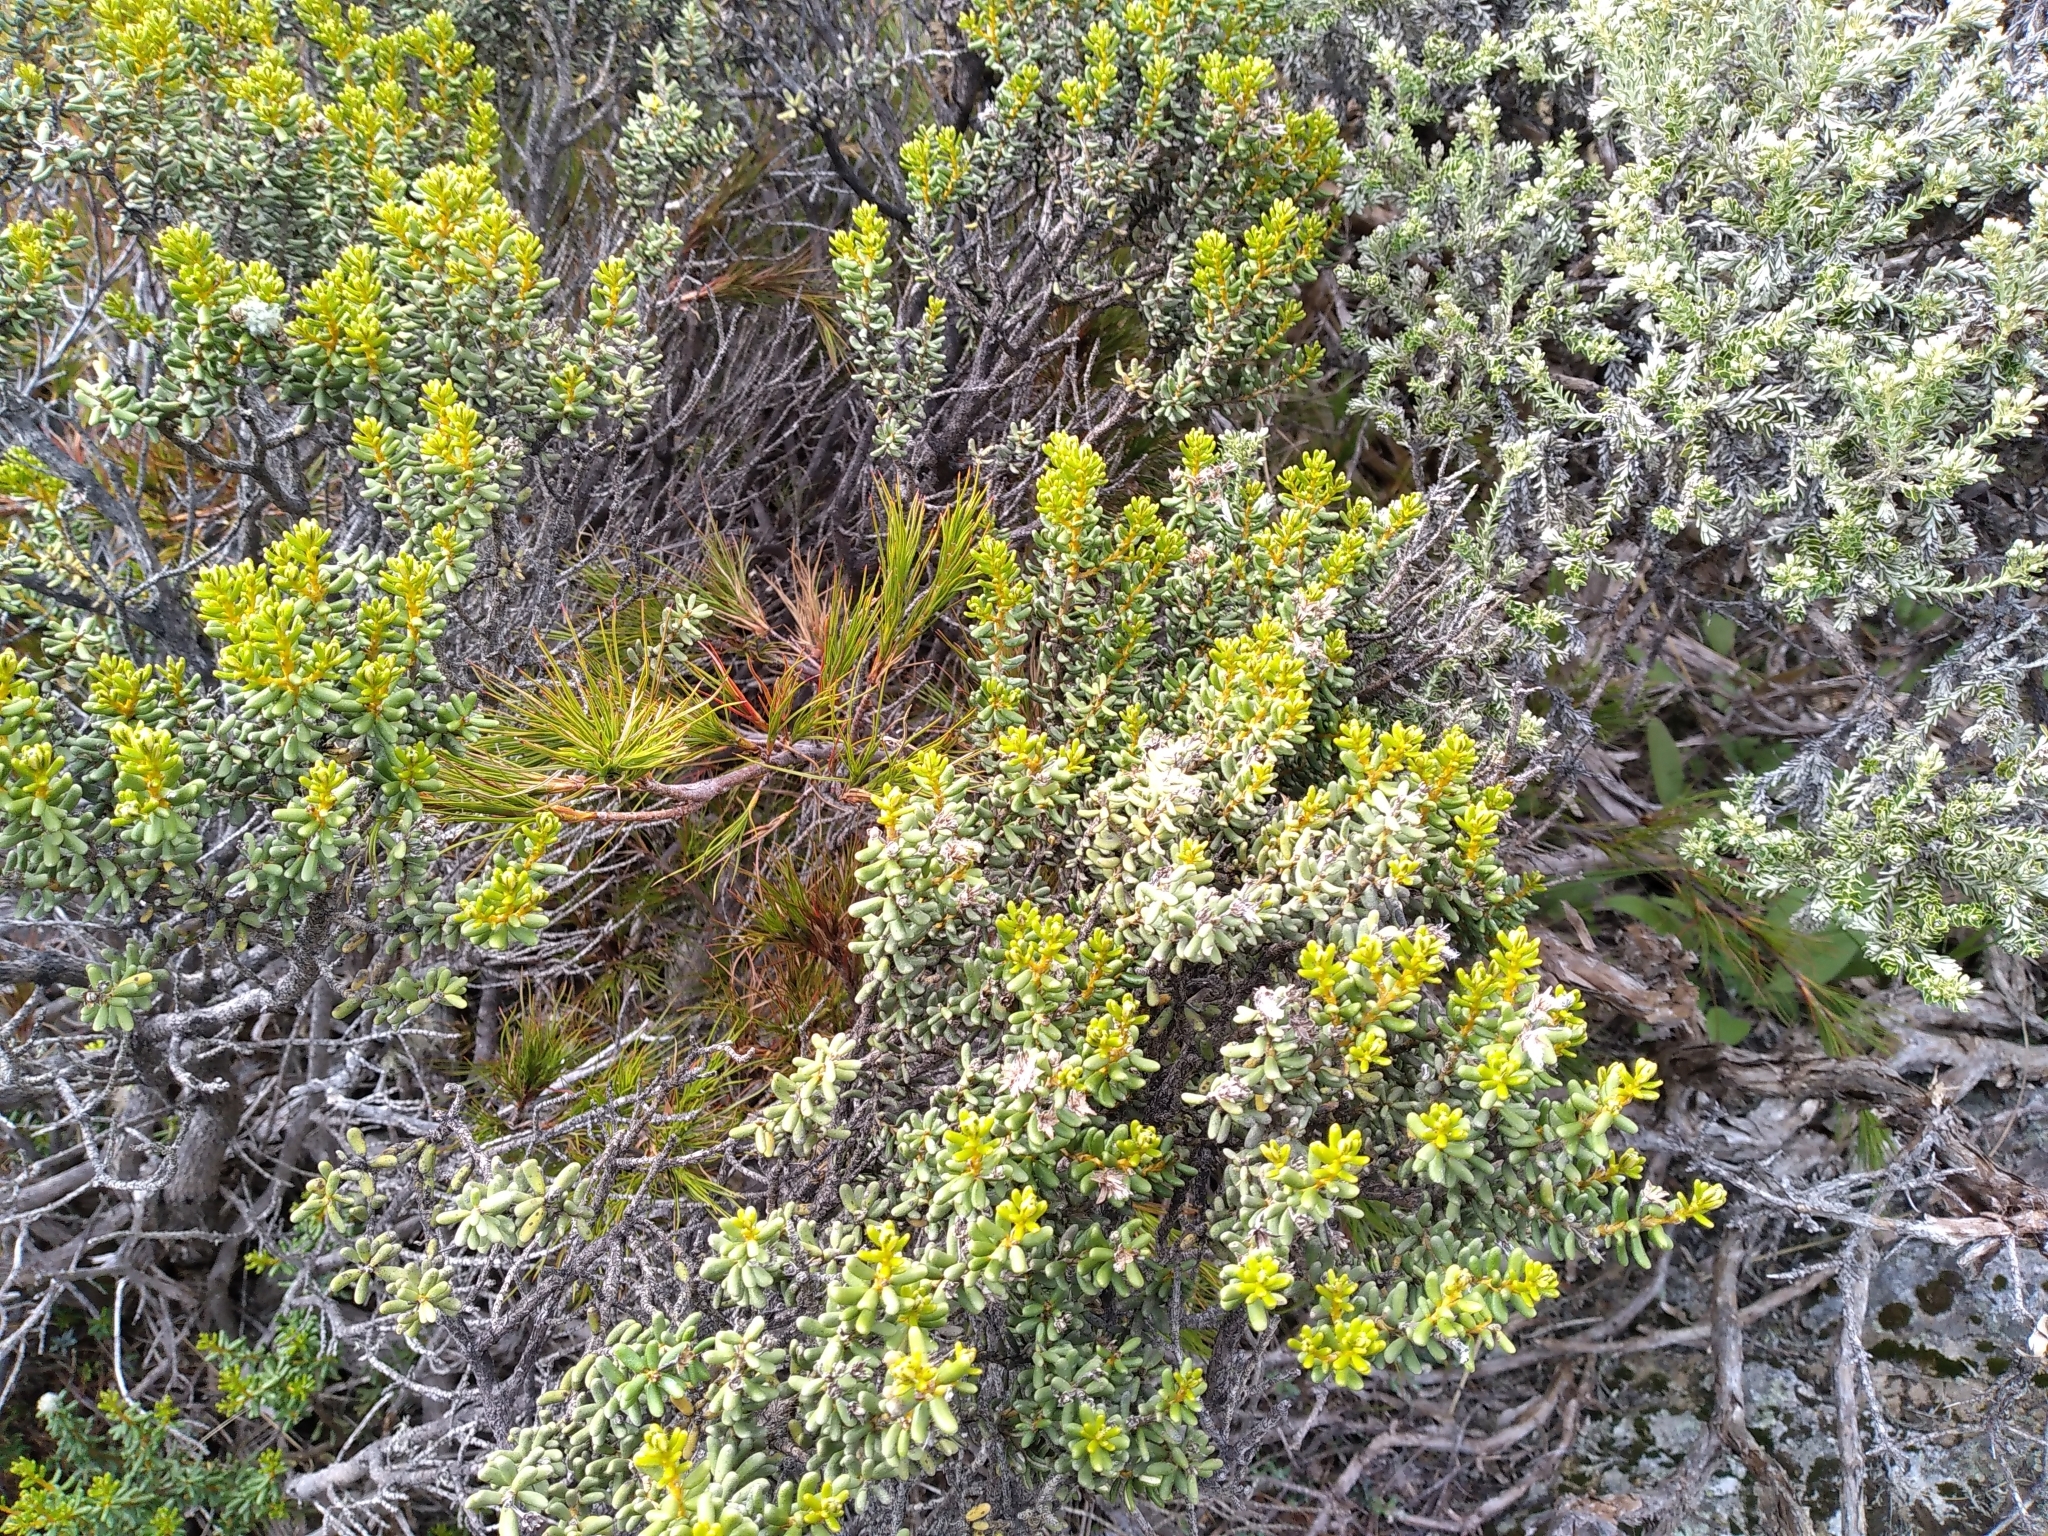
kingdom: Plantae
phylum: Tracheophyta
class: Magnoliopsida
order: Asterales
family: Asteraceae
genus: Olearia
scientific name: Olearia cymbifolia
